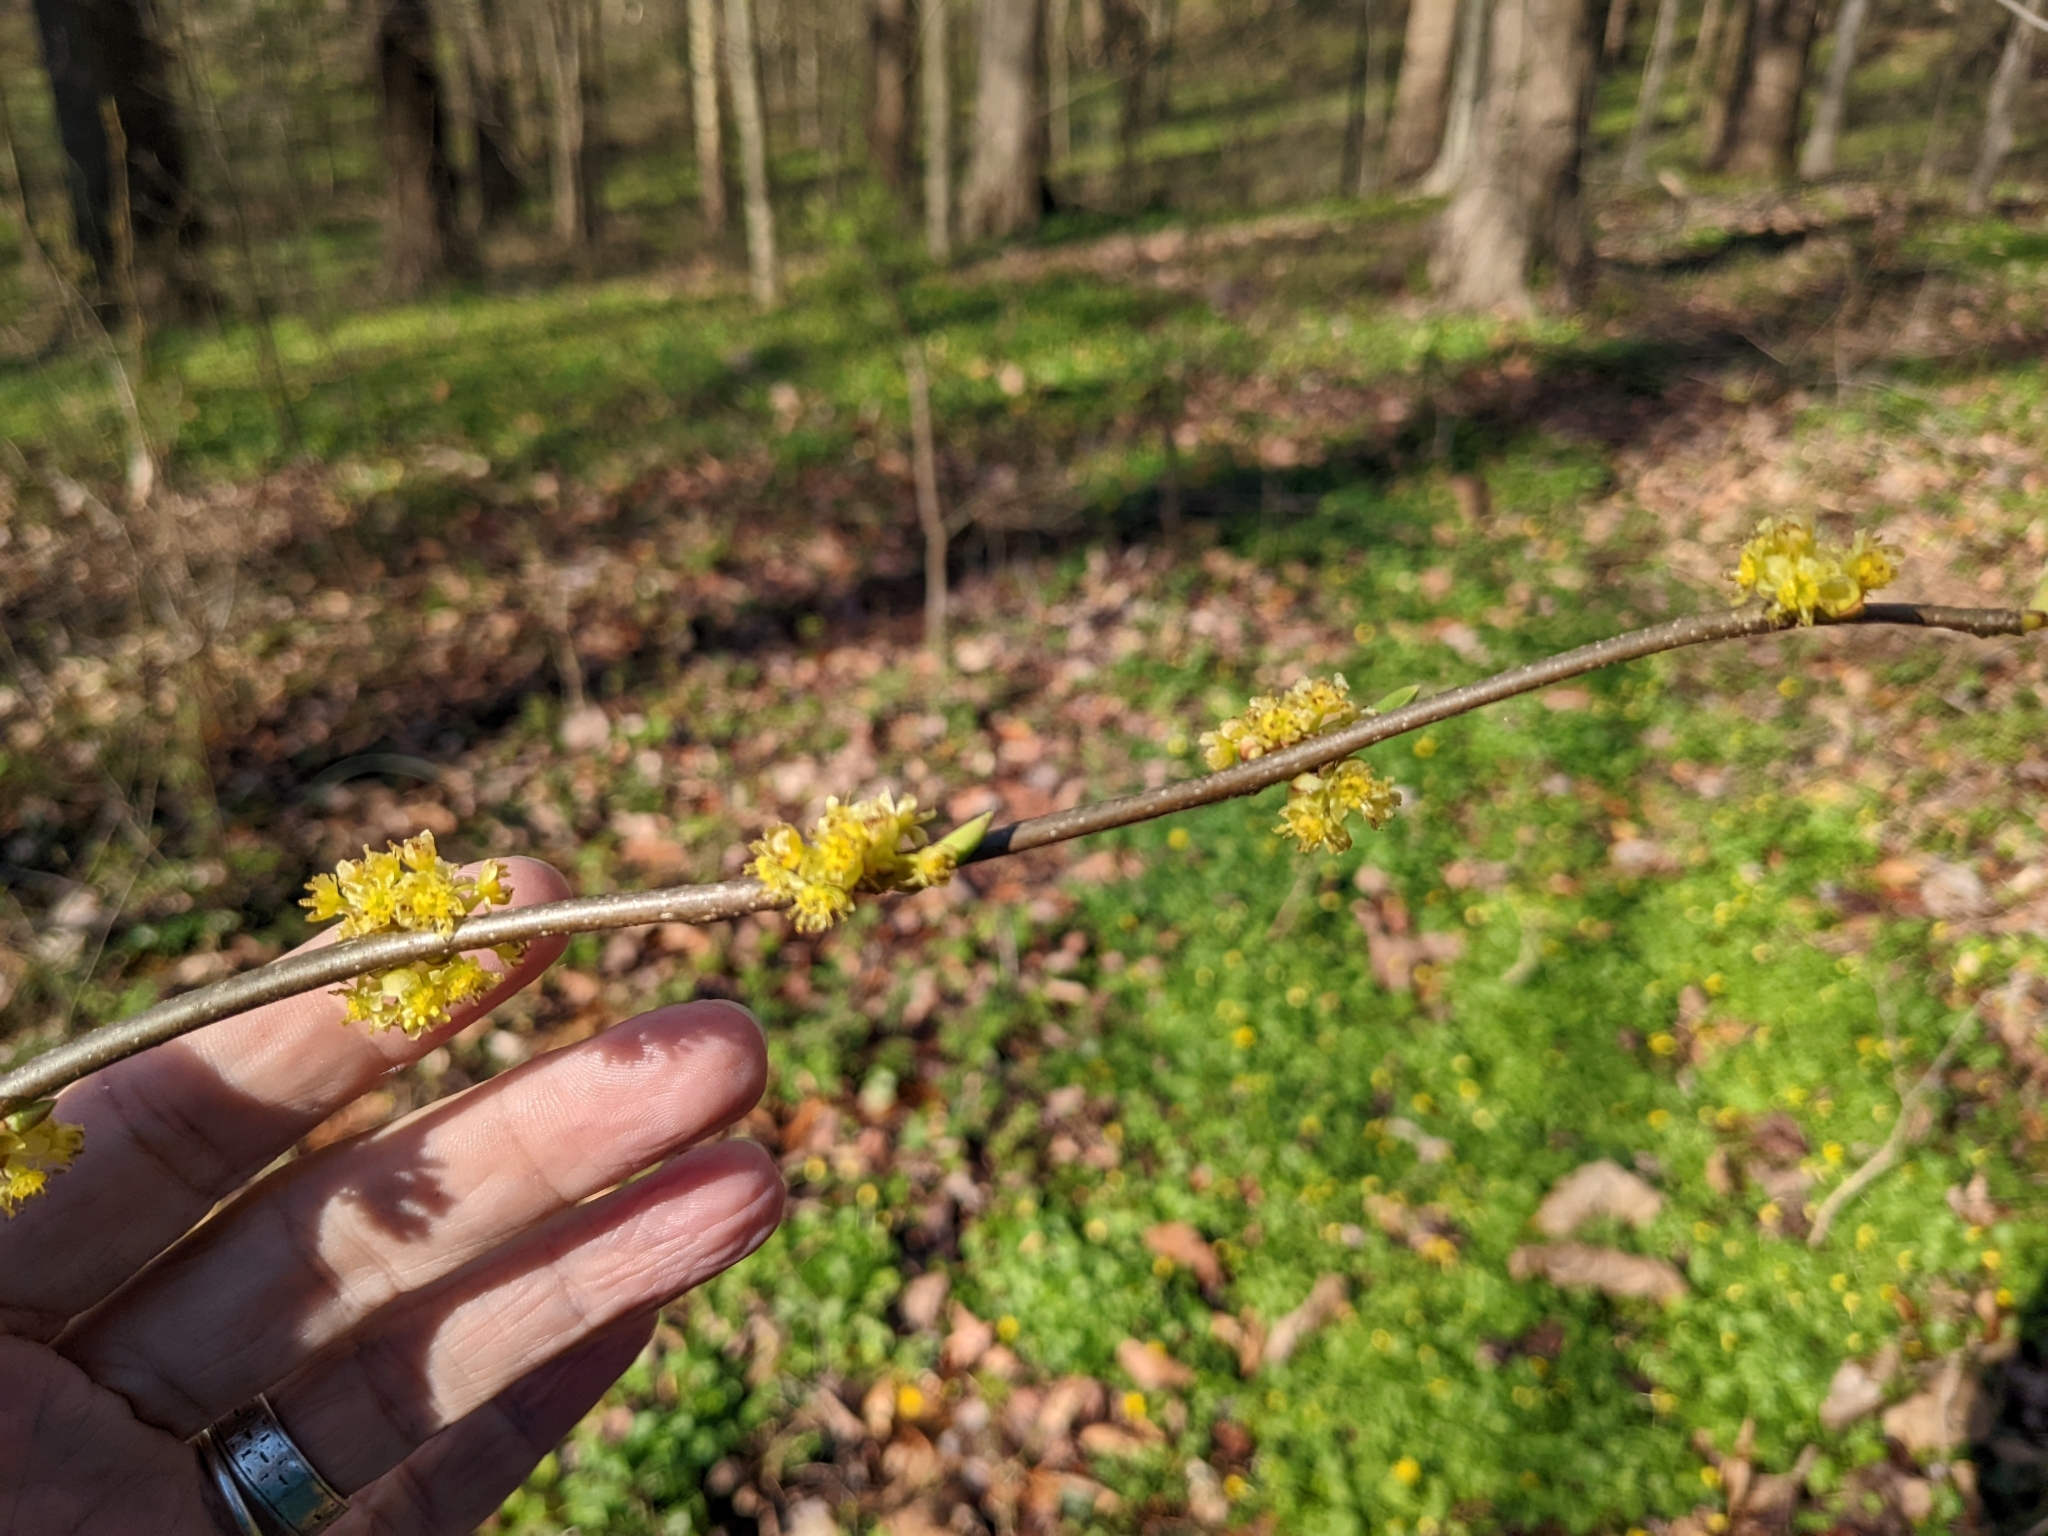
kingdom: Plantae
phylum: Tracheophyta
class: Magnoliopsida
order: Laurales
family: Lauraceae
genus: Lindera
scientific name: Lindera benzoin
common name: Spicebush
